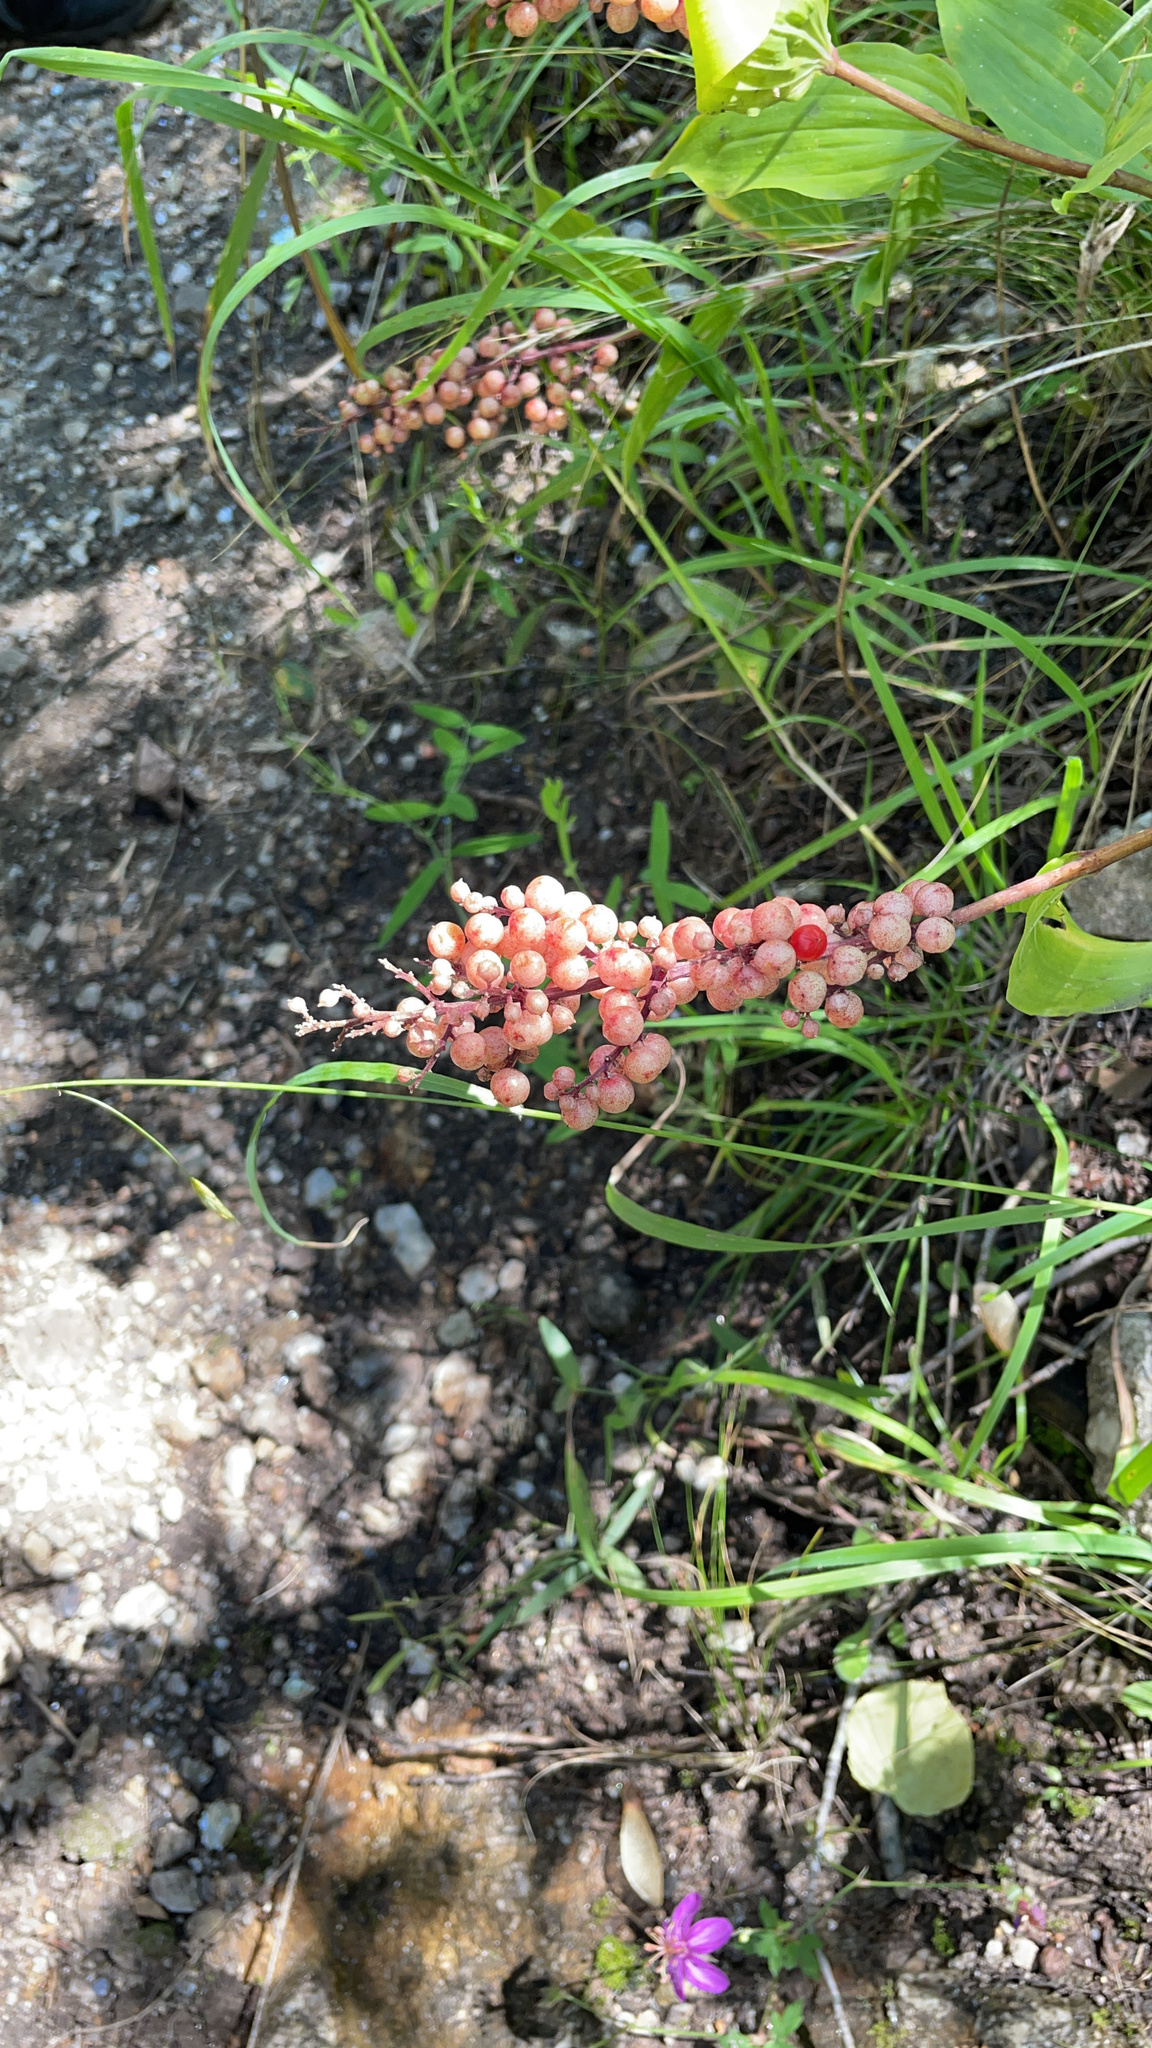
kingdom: Plantae
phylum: Tracheophyta
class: Liliopsida
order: Asparagales
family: Asparagaceae
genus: Maianthemum
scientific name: Maianthemum racemosum
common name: False spikenard
